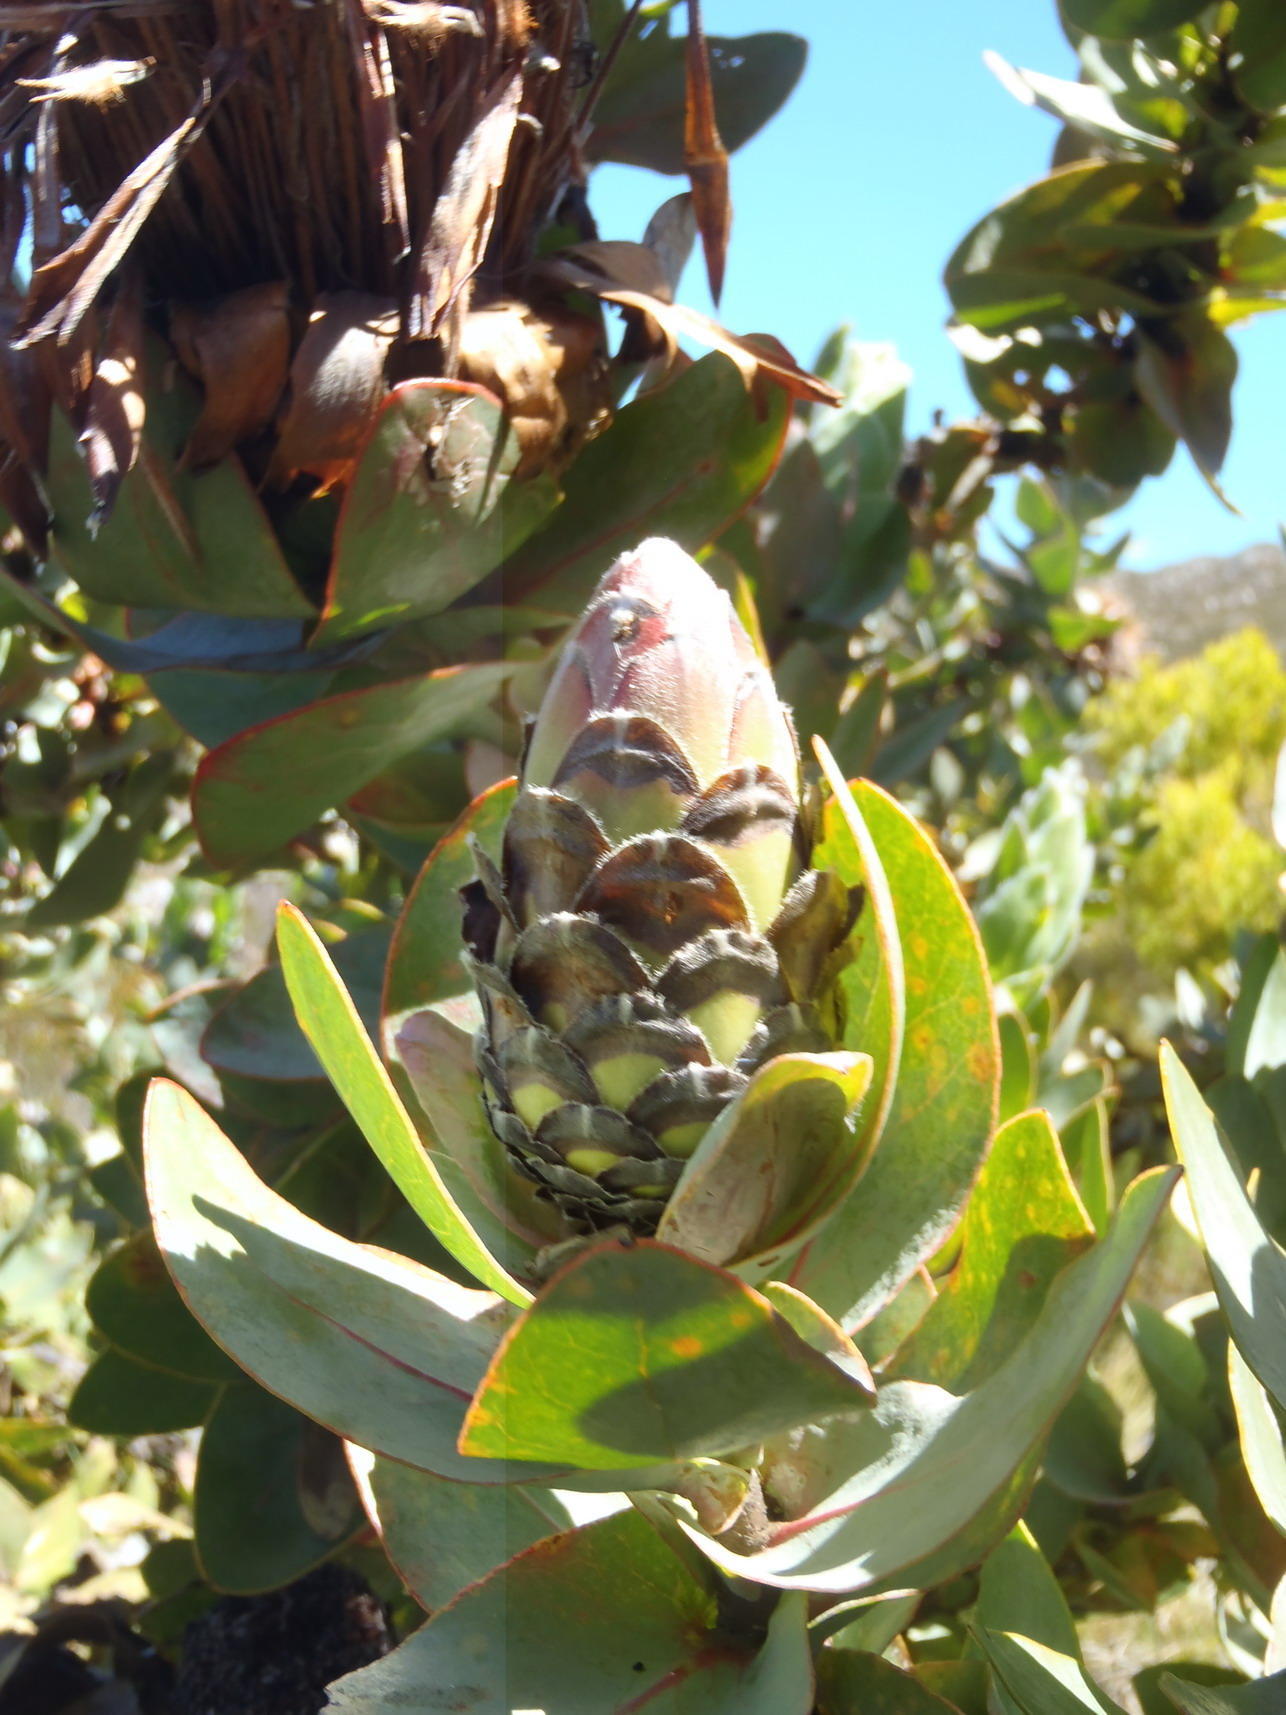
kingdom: Plantae
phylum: Tracheophyta
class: Magnoliopsida
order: Proteales
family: Proteaceae
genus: Protea
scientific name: Protea eximia
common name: Broad-leaved sugarbush
